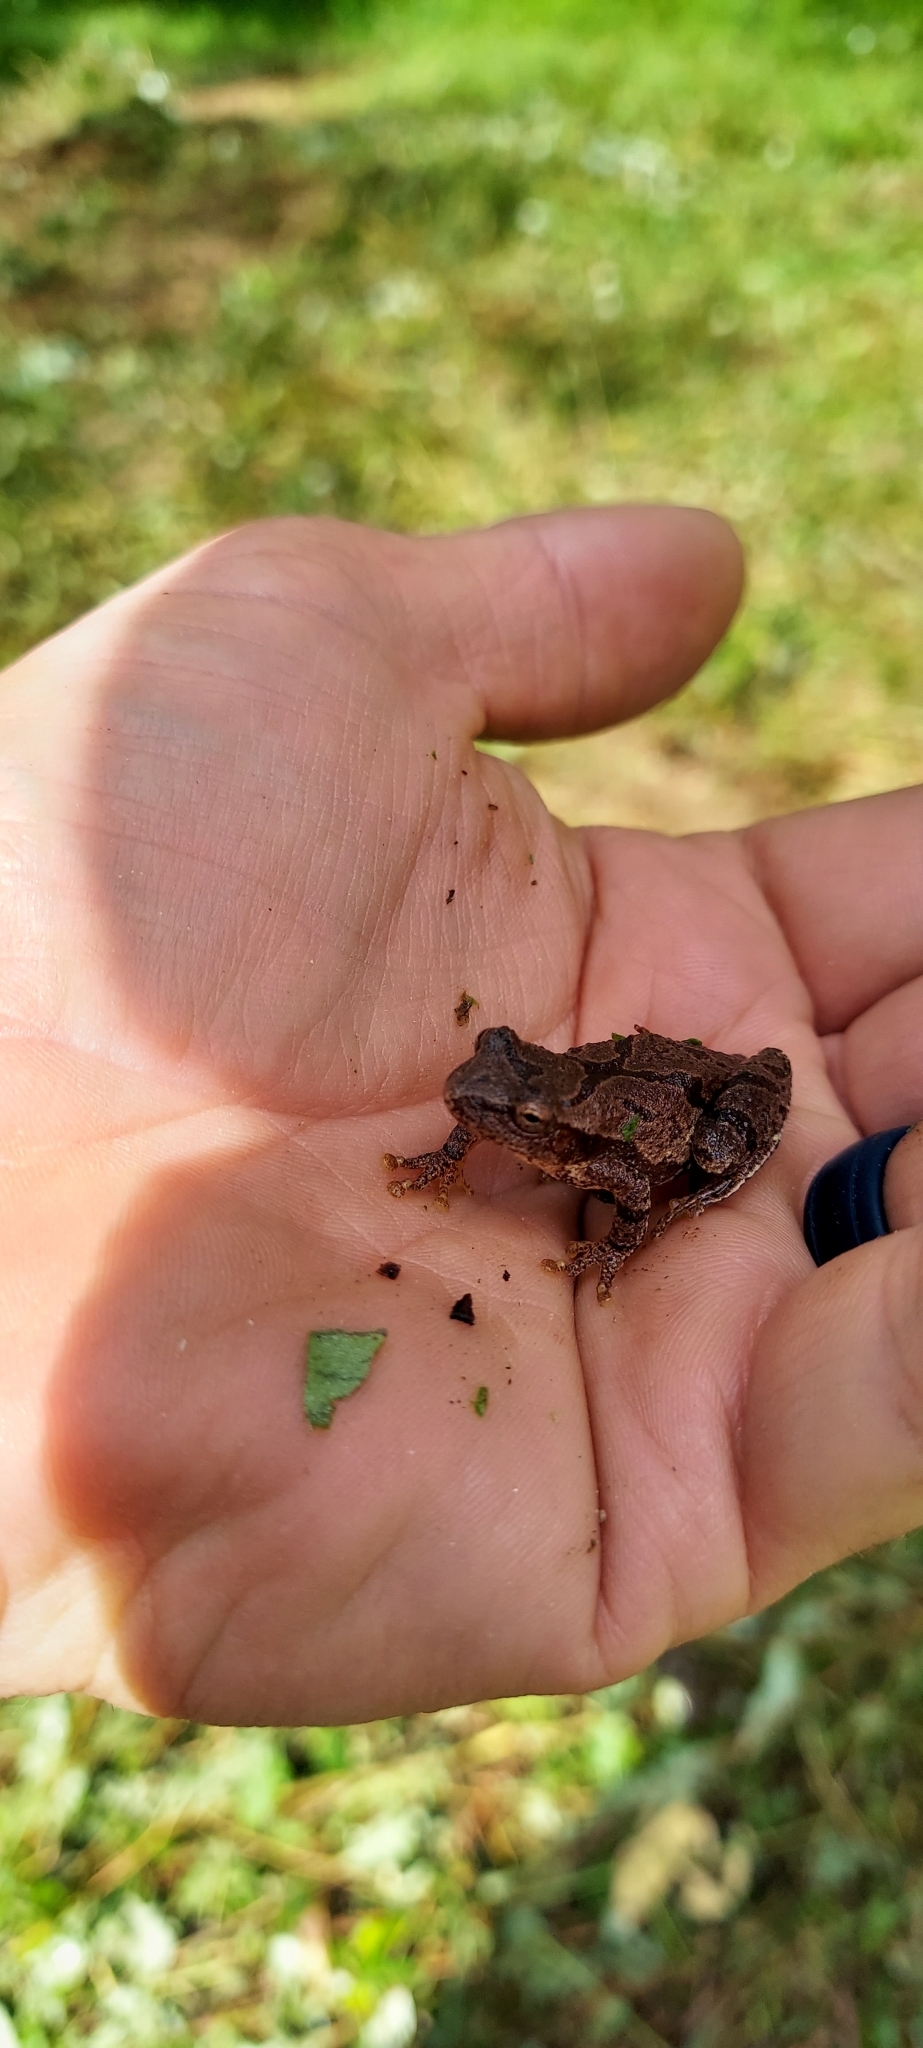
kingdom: Animalia
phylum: Chordata
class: Amphibia
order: Anura
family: Hylidae
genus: Pseudacris
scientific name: Pseudacris crucifer
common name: Spring peeper
